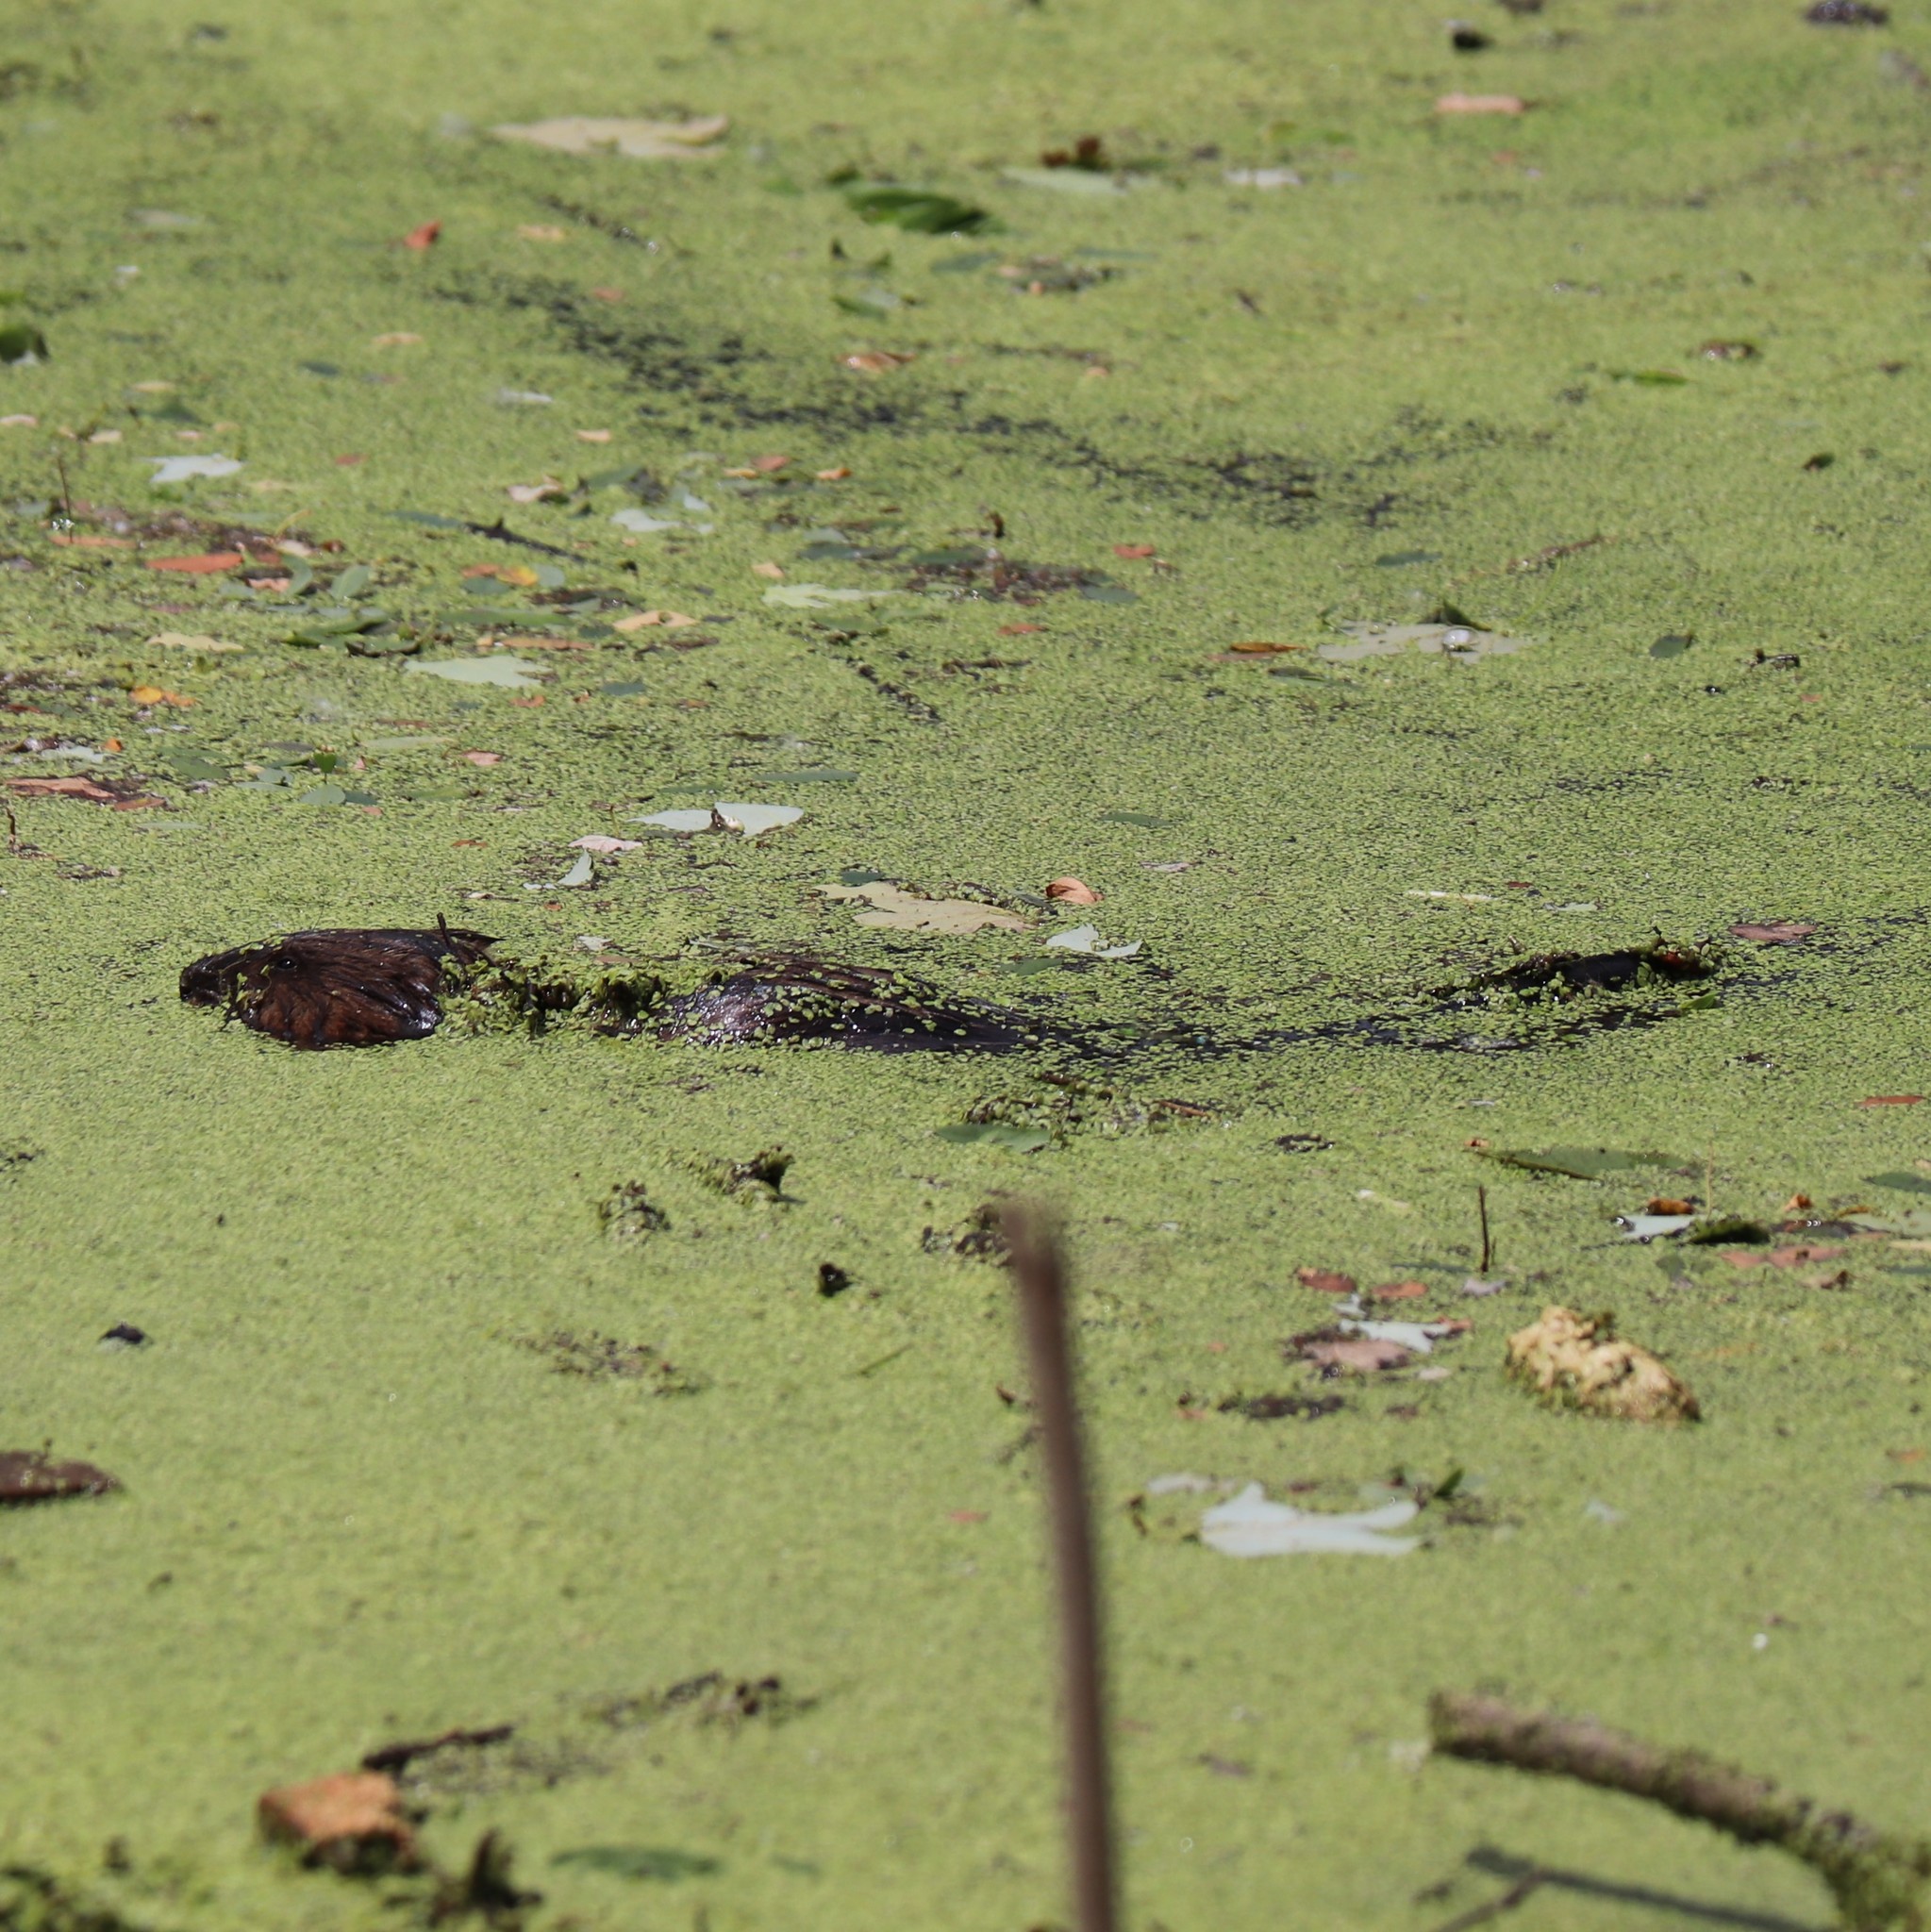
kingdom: Animalia
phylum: Chordata
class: Mammalia
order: Rodentia
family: Cricetidae
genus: Ondatra
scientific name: Ondatra zibethicus
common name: Muskrat
